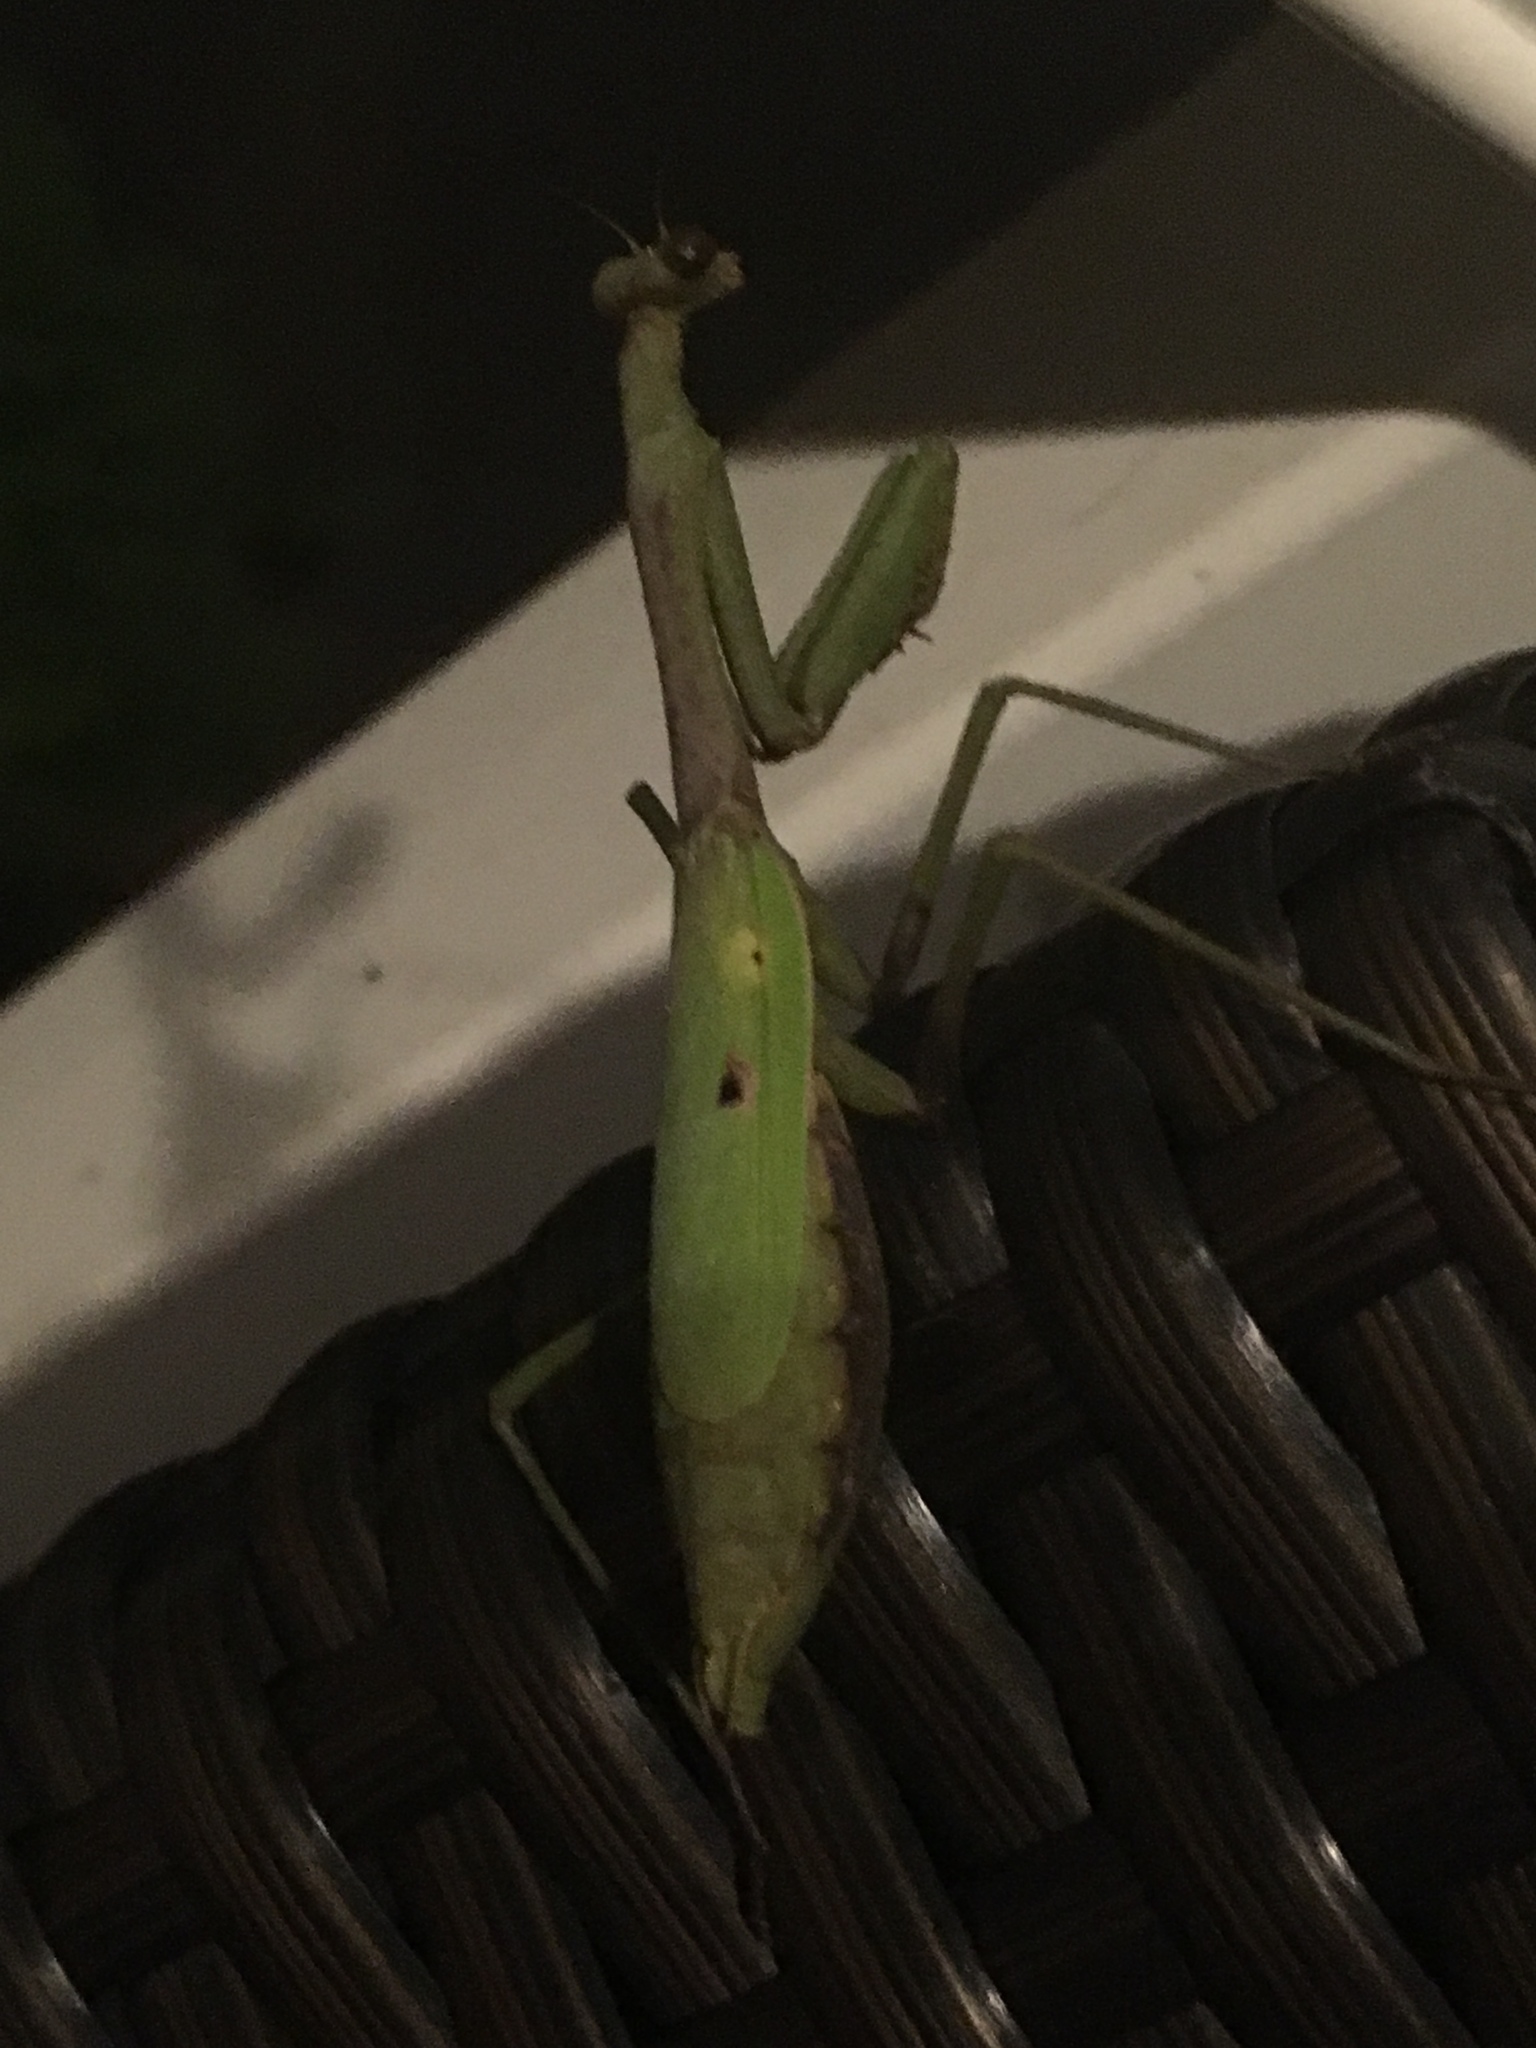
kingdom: Animalia
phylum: Arthropoda
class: Insecta
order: Mantodea
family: Mantidae
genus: Stagmomantis
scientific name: Stagmomantis carolina
